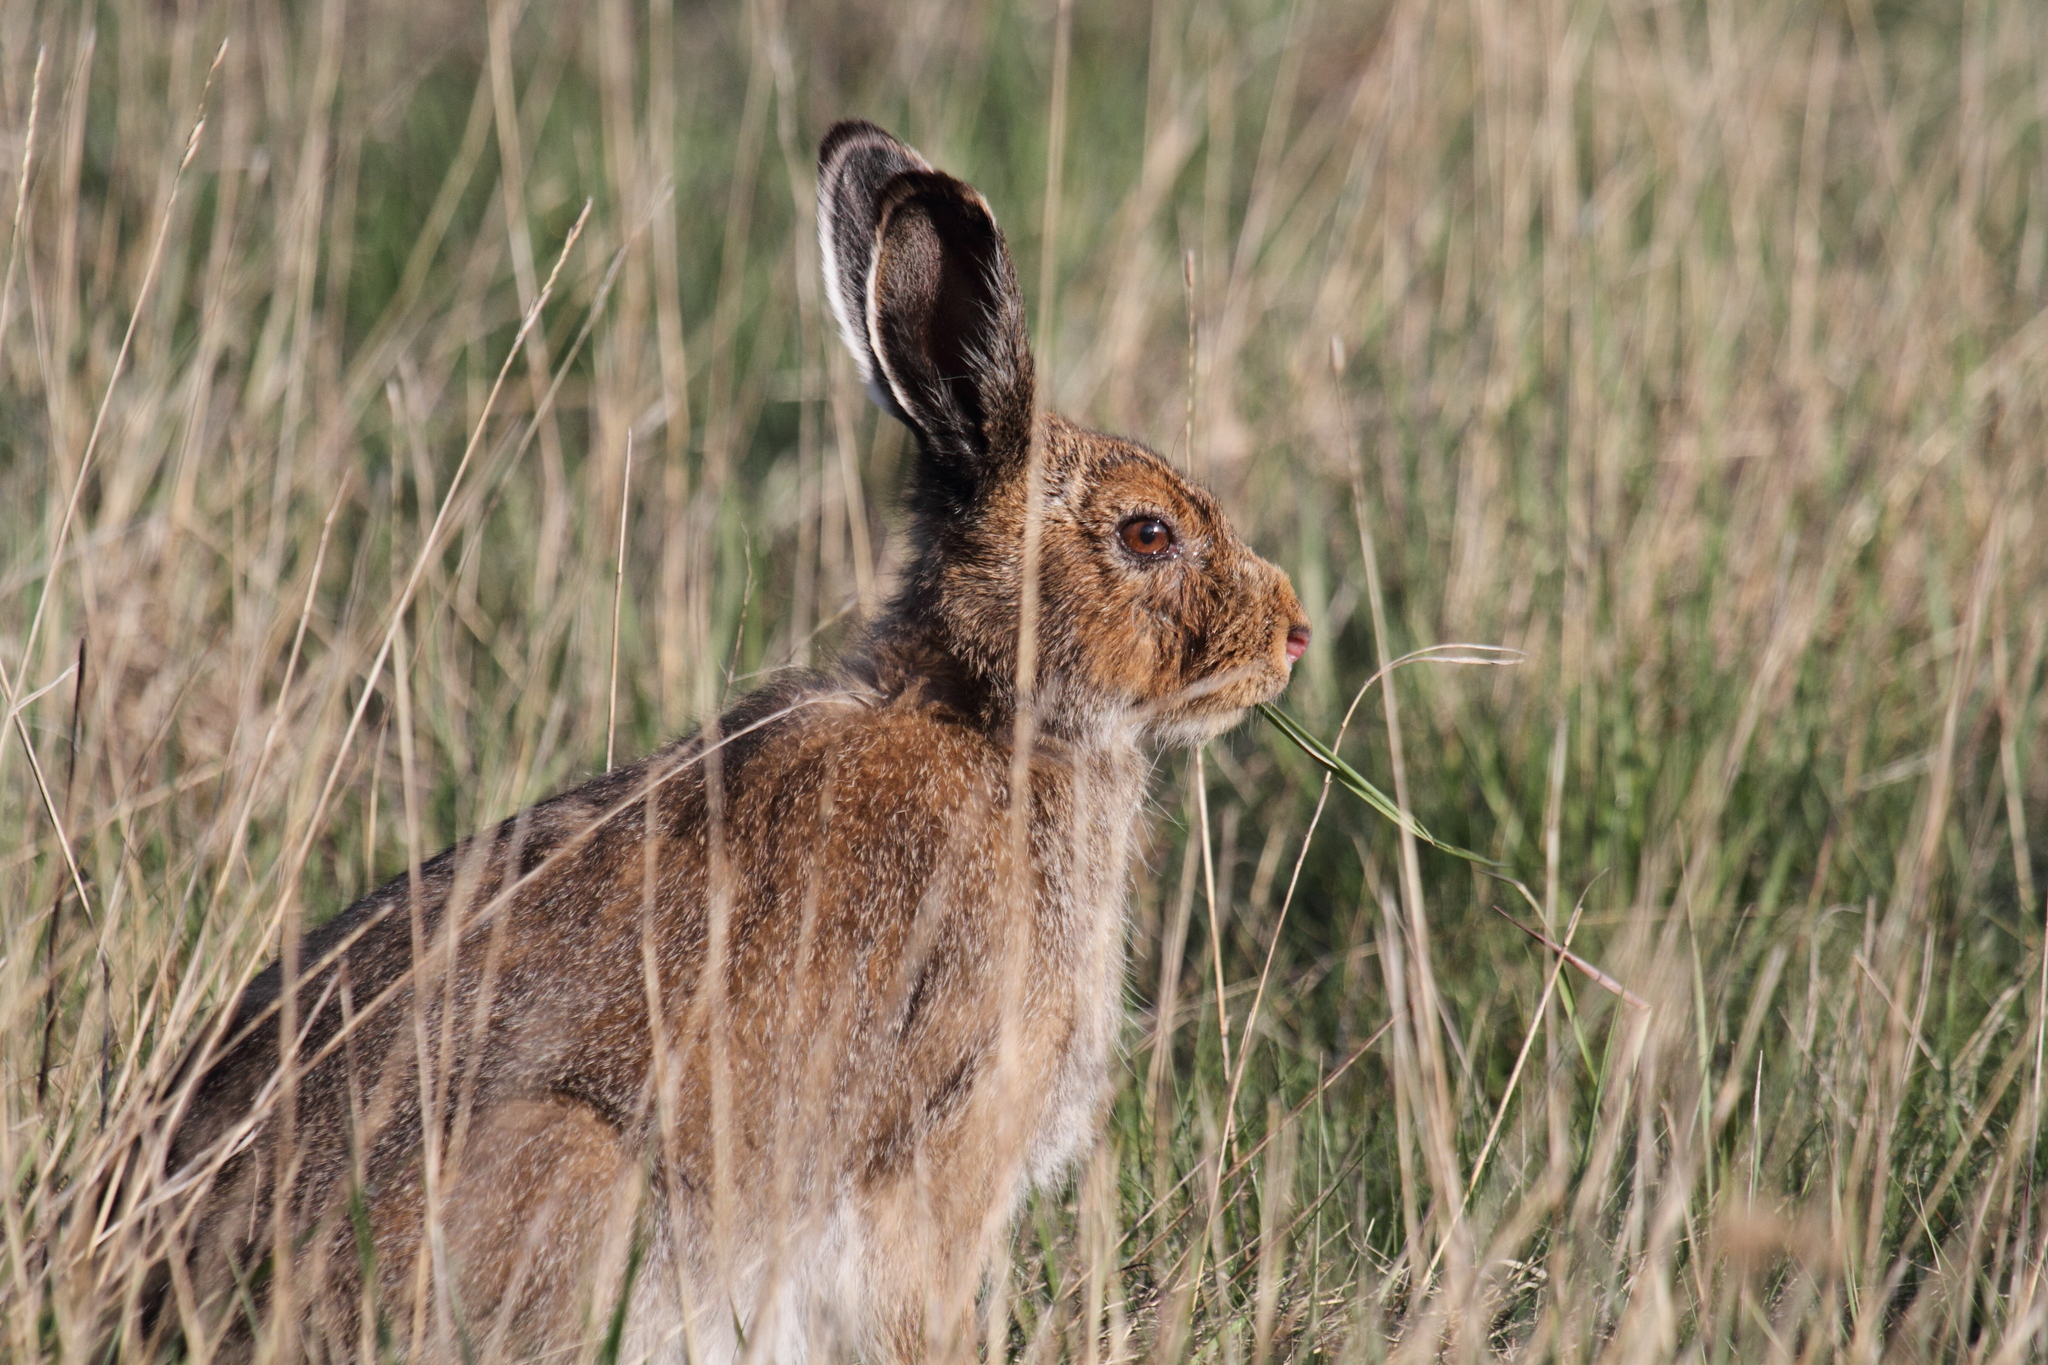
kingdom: Animalia
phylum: Chordata
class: Mammalia
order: Lagomorpha
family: Leporidae
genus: Lepus
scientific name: Lepus timidus
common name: Mountain hare
